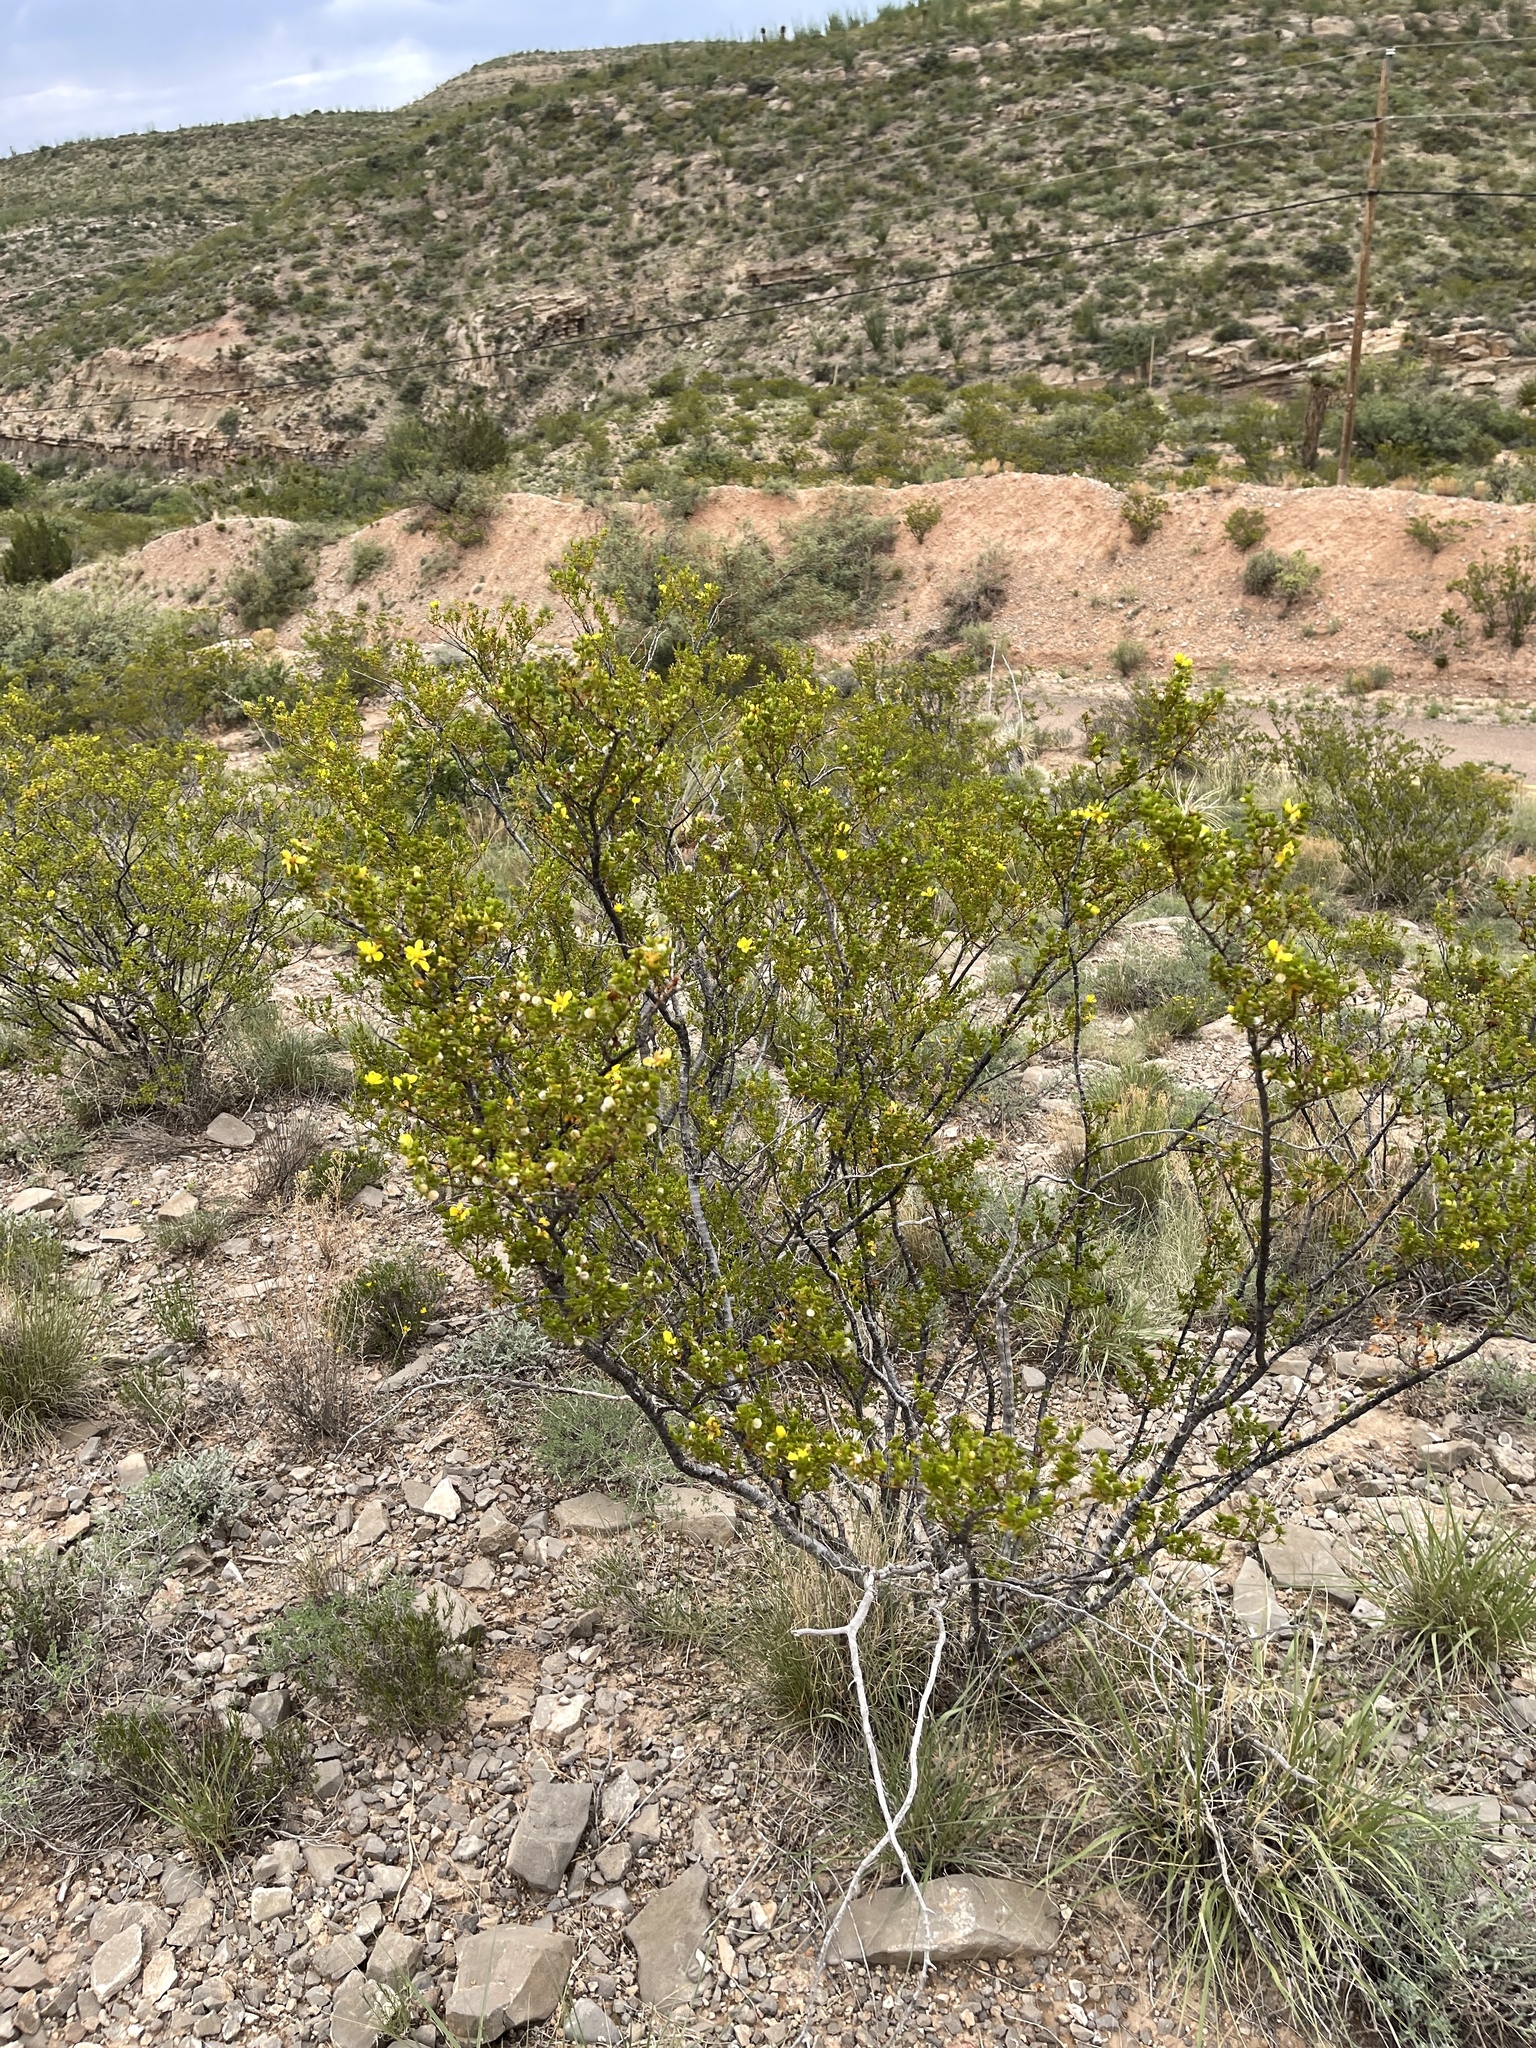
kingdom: Plantae
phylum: Tracheophyta
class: Magnoliopsida
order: Zygophyllales
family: Zygophyllaceae
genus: Larrea
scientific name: Larrea tridentata
